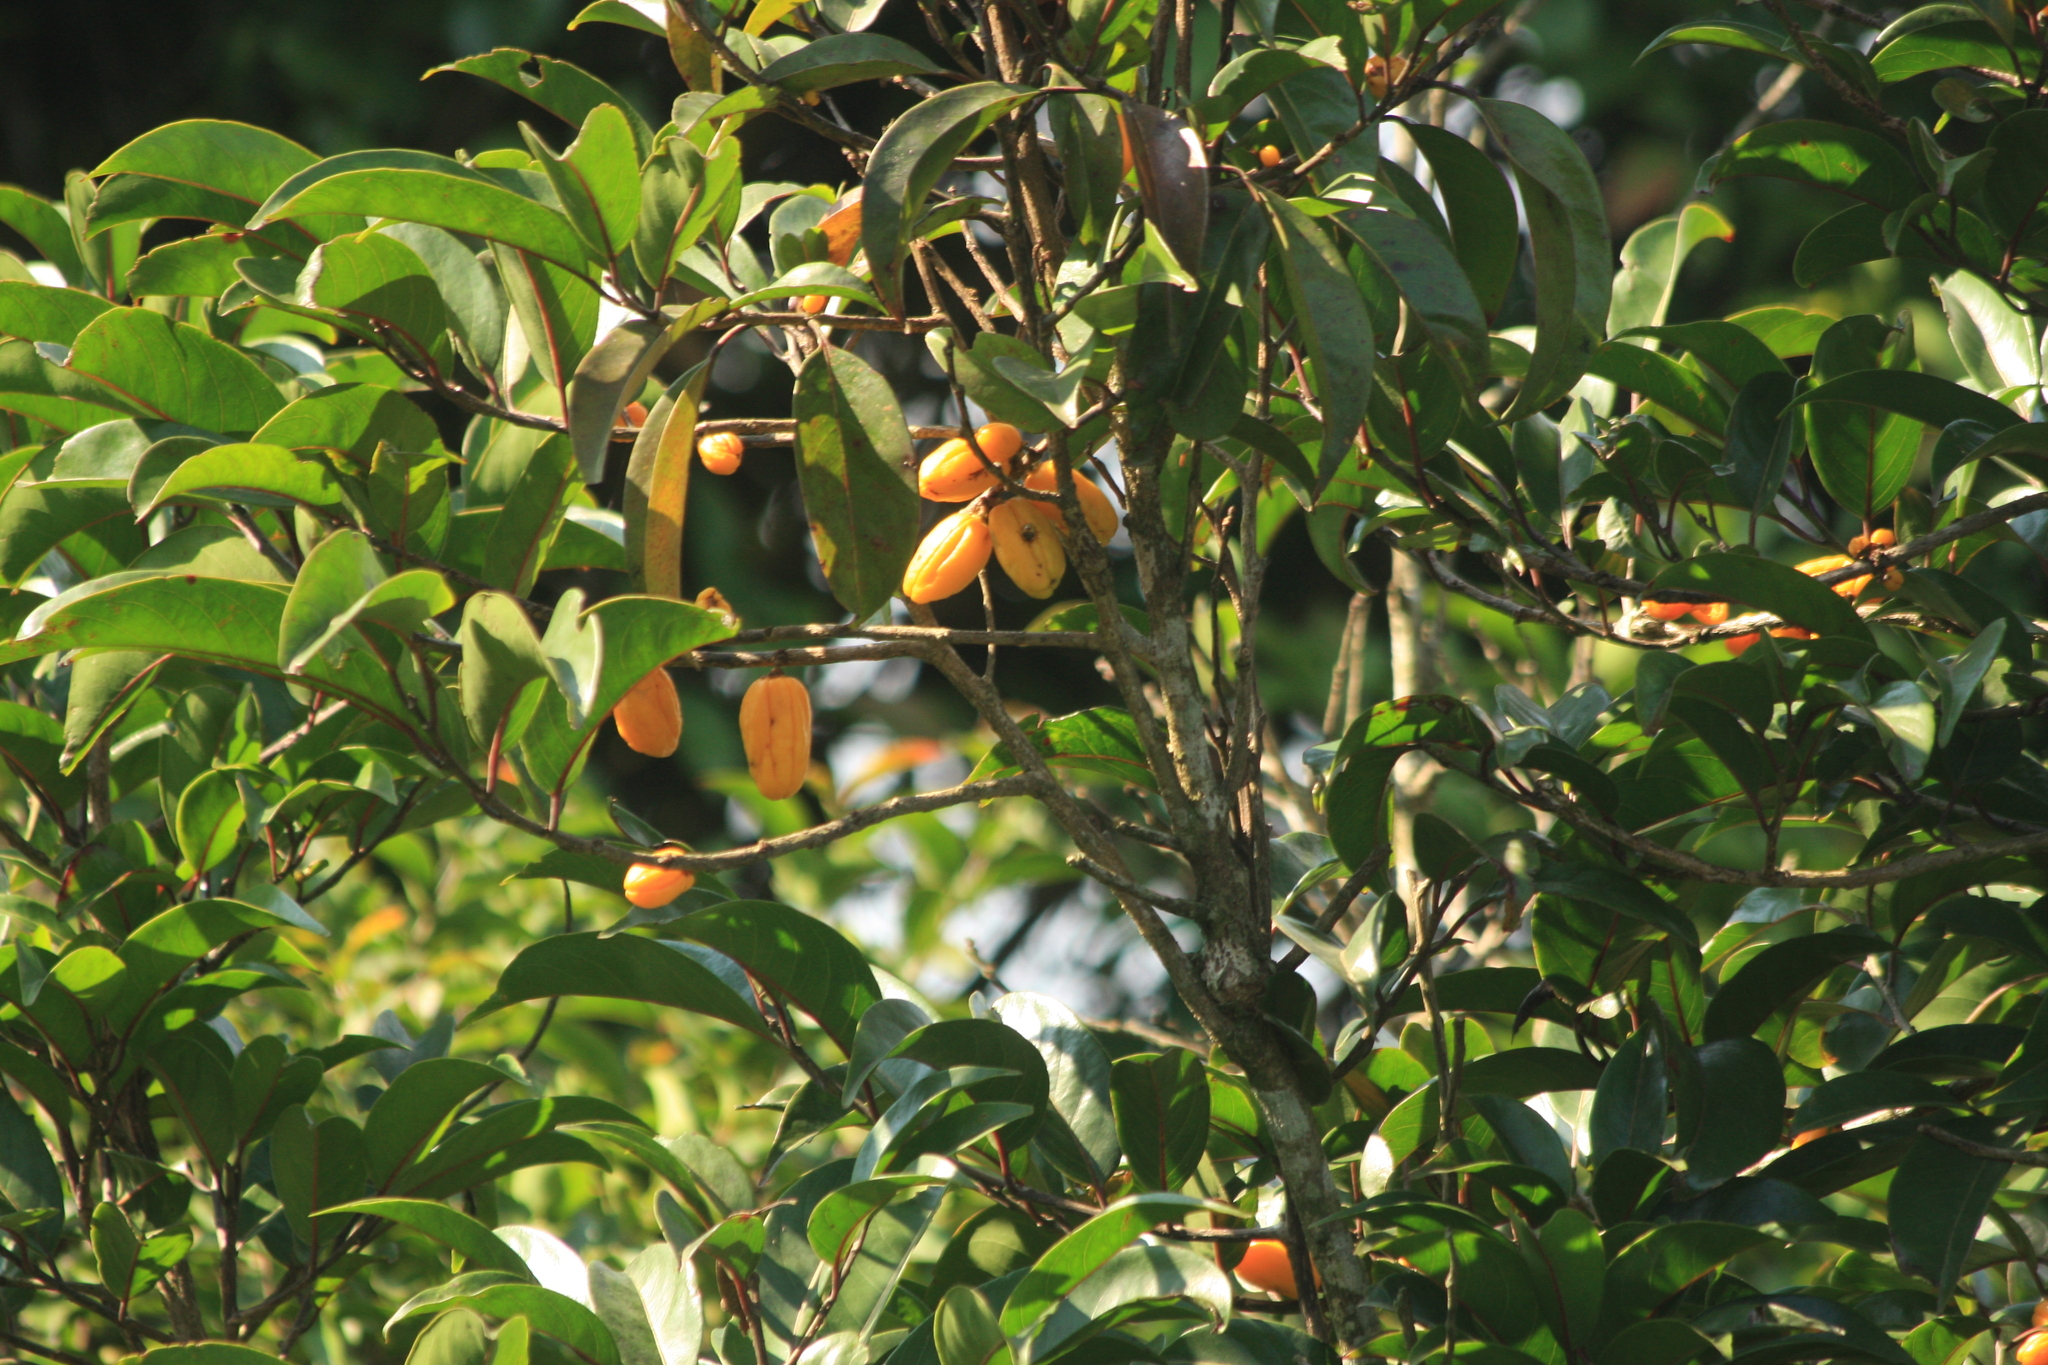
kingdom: Plantae
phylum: Tracheophyta
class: Magnoliopsida
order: Malpighiales
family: Salicaceae
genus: Casearia
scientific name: Casearia rubescens
